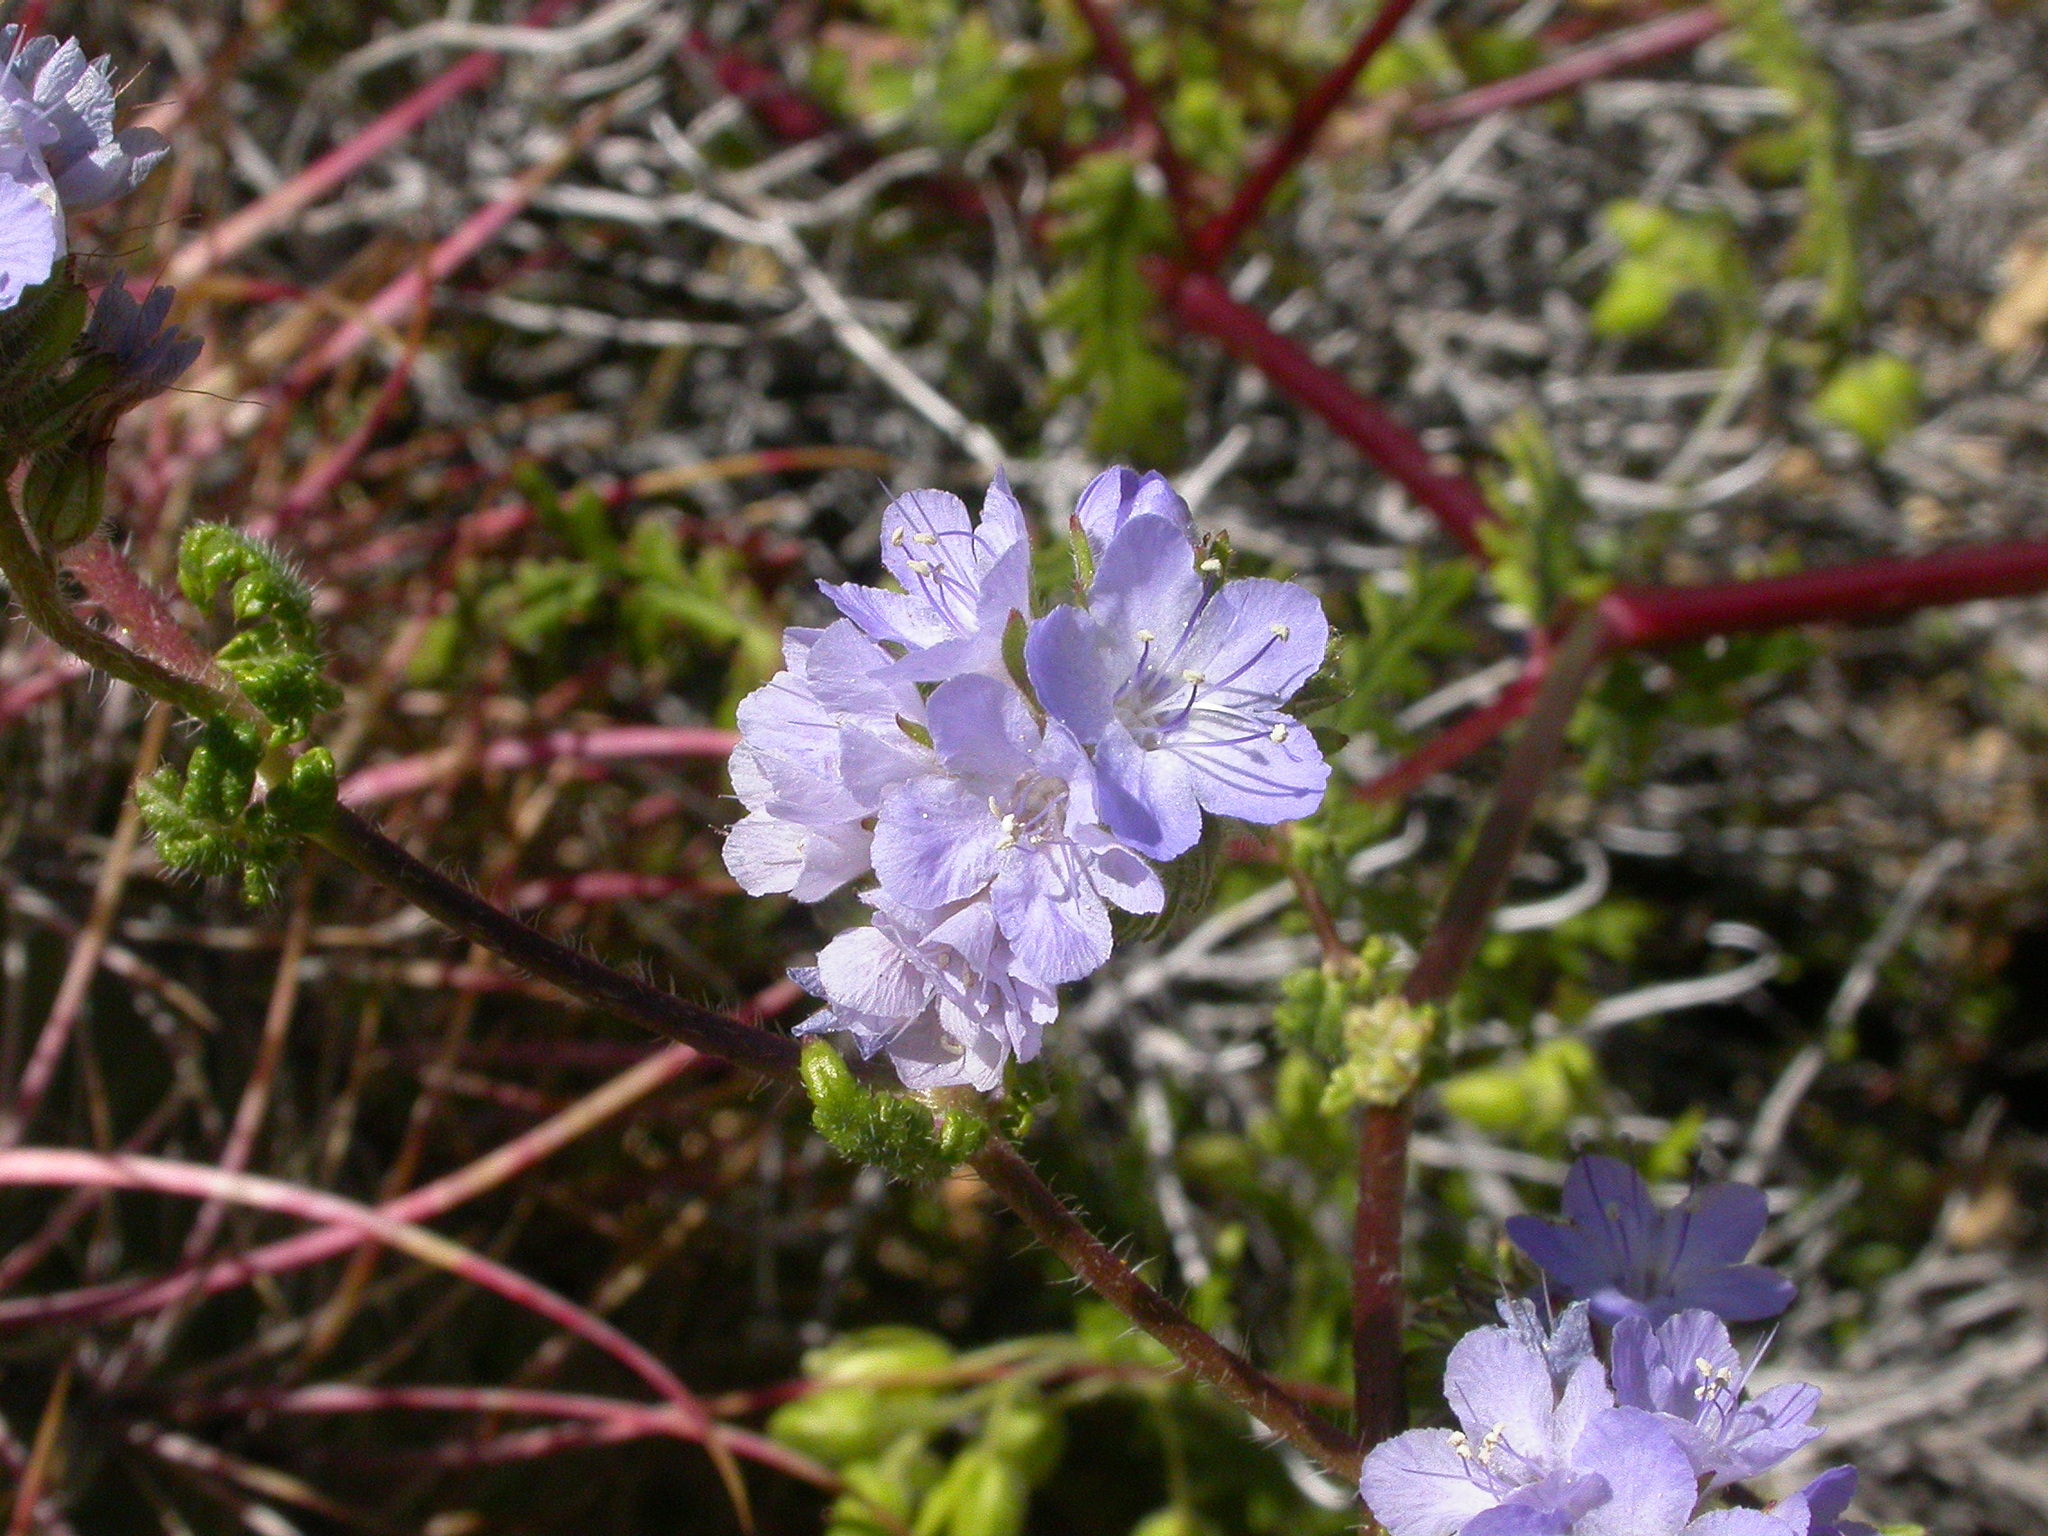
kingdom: Plantae
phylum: Tracheophyta
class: Magnoliopsida
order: Boraginales
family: Hydrophyllaceae
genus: Phacelia
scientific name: Phacelia distans
